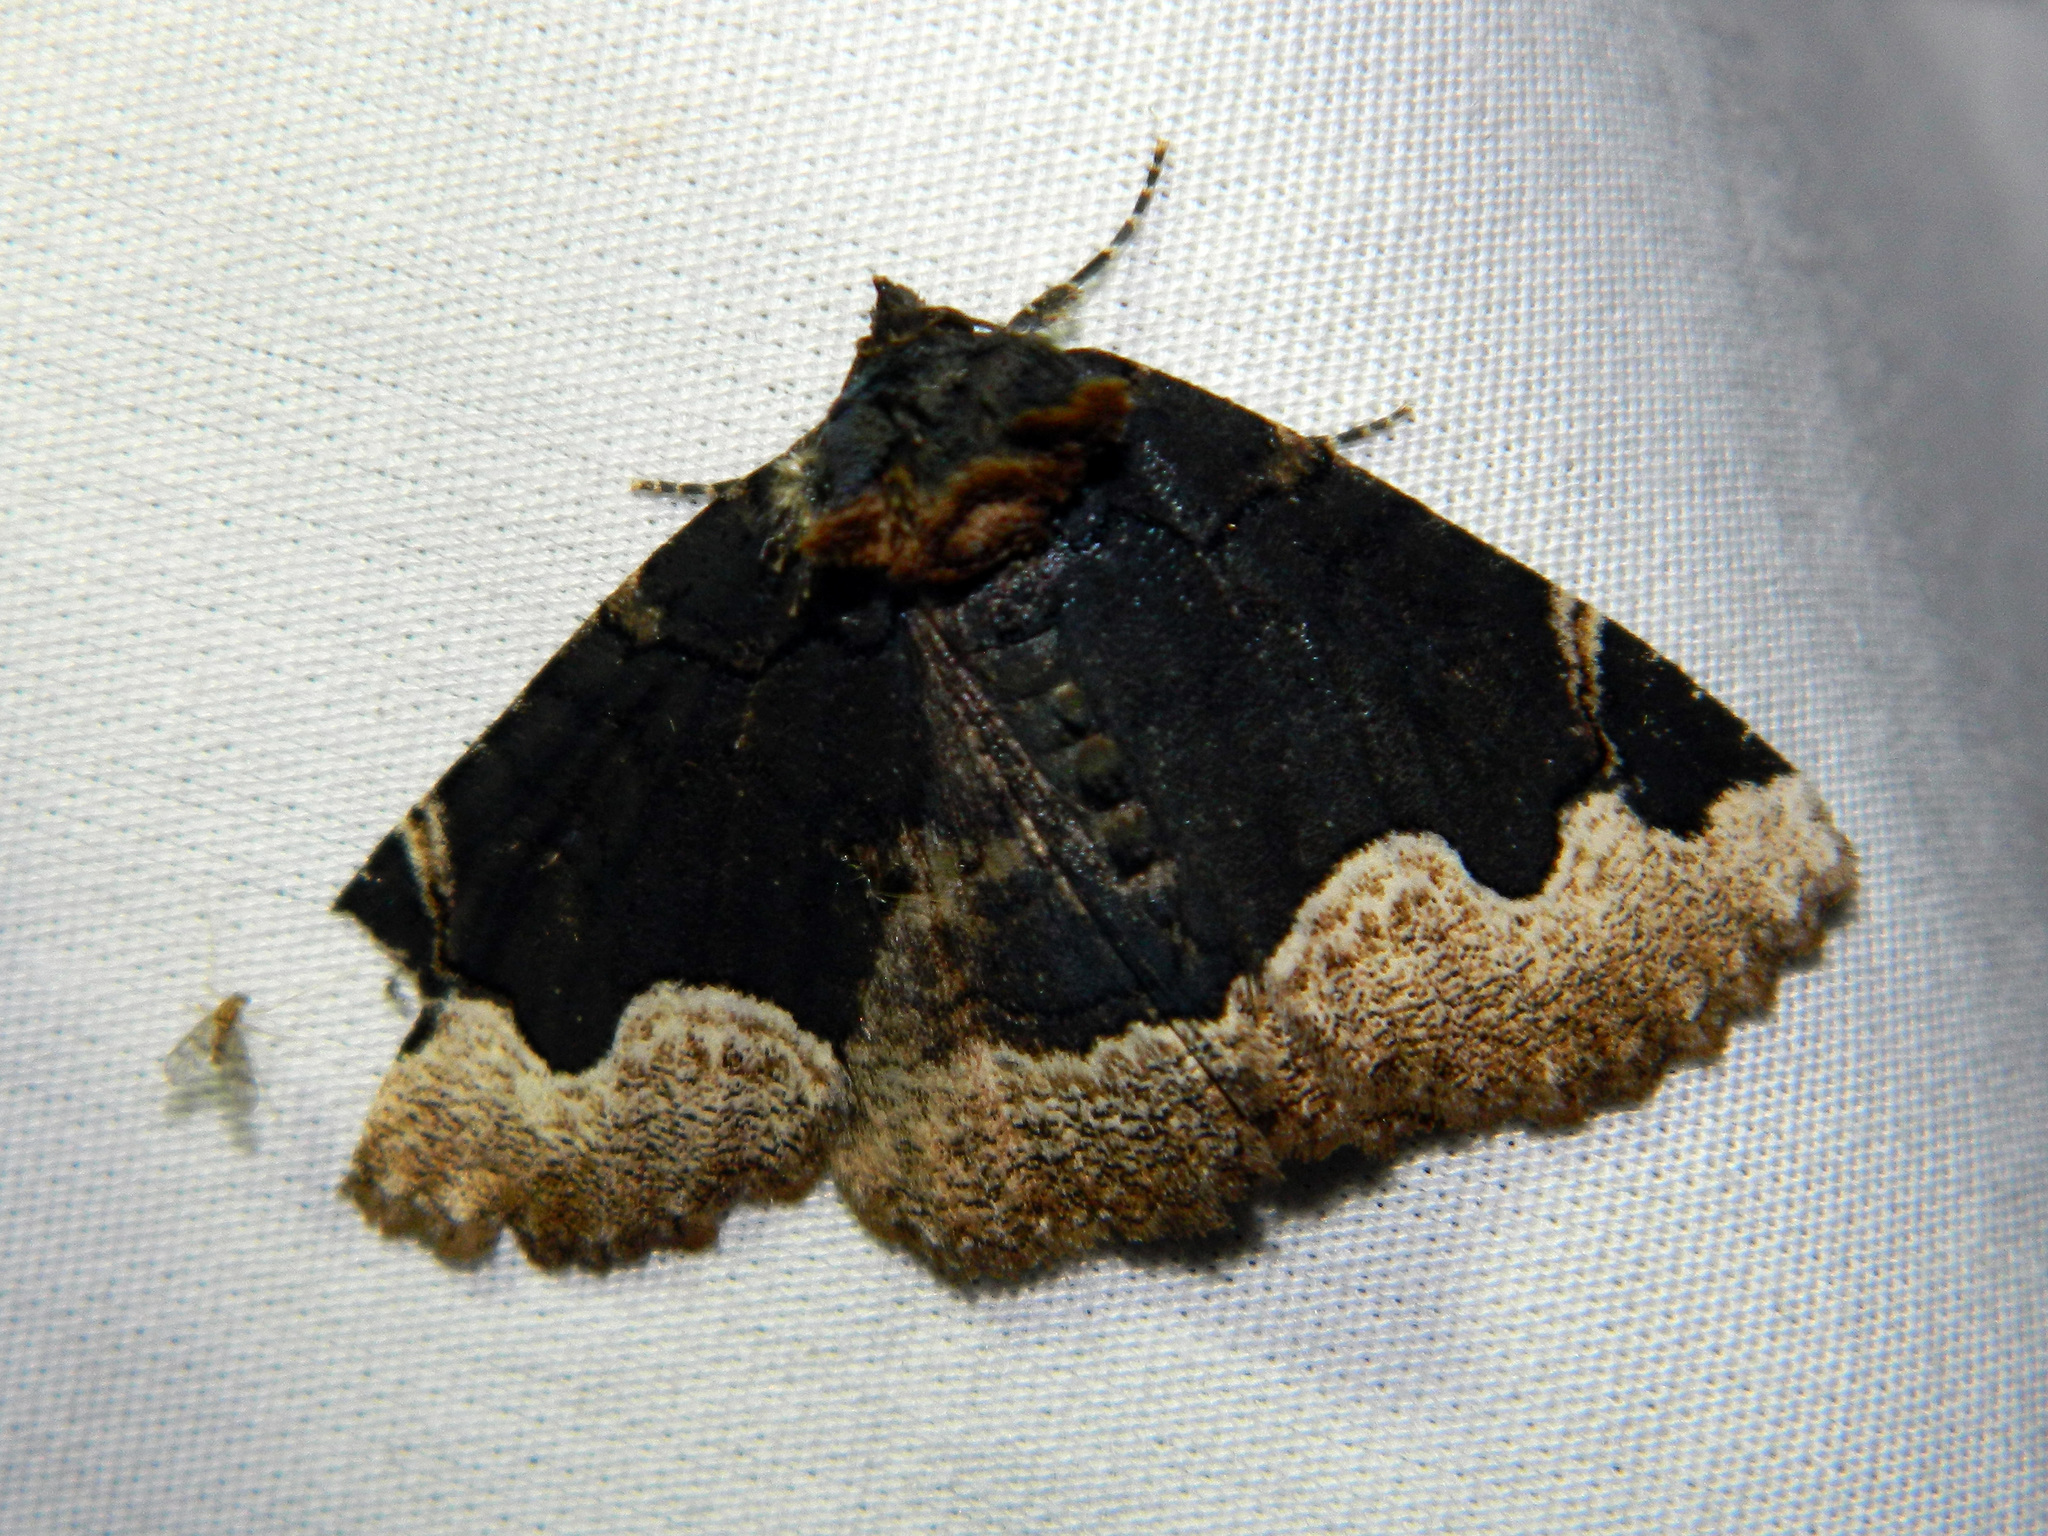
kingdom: Animalia
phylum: Arthropoda
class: Insecta
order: Lepidoptera
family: Erebidae
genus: Zale
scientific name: Zale horrida
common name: Horrid zale moth
